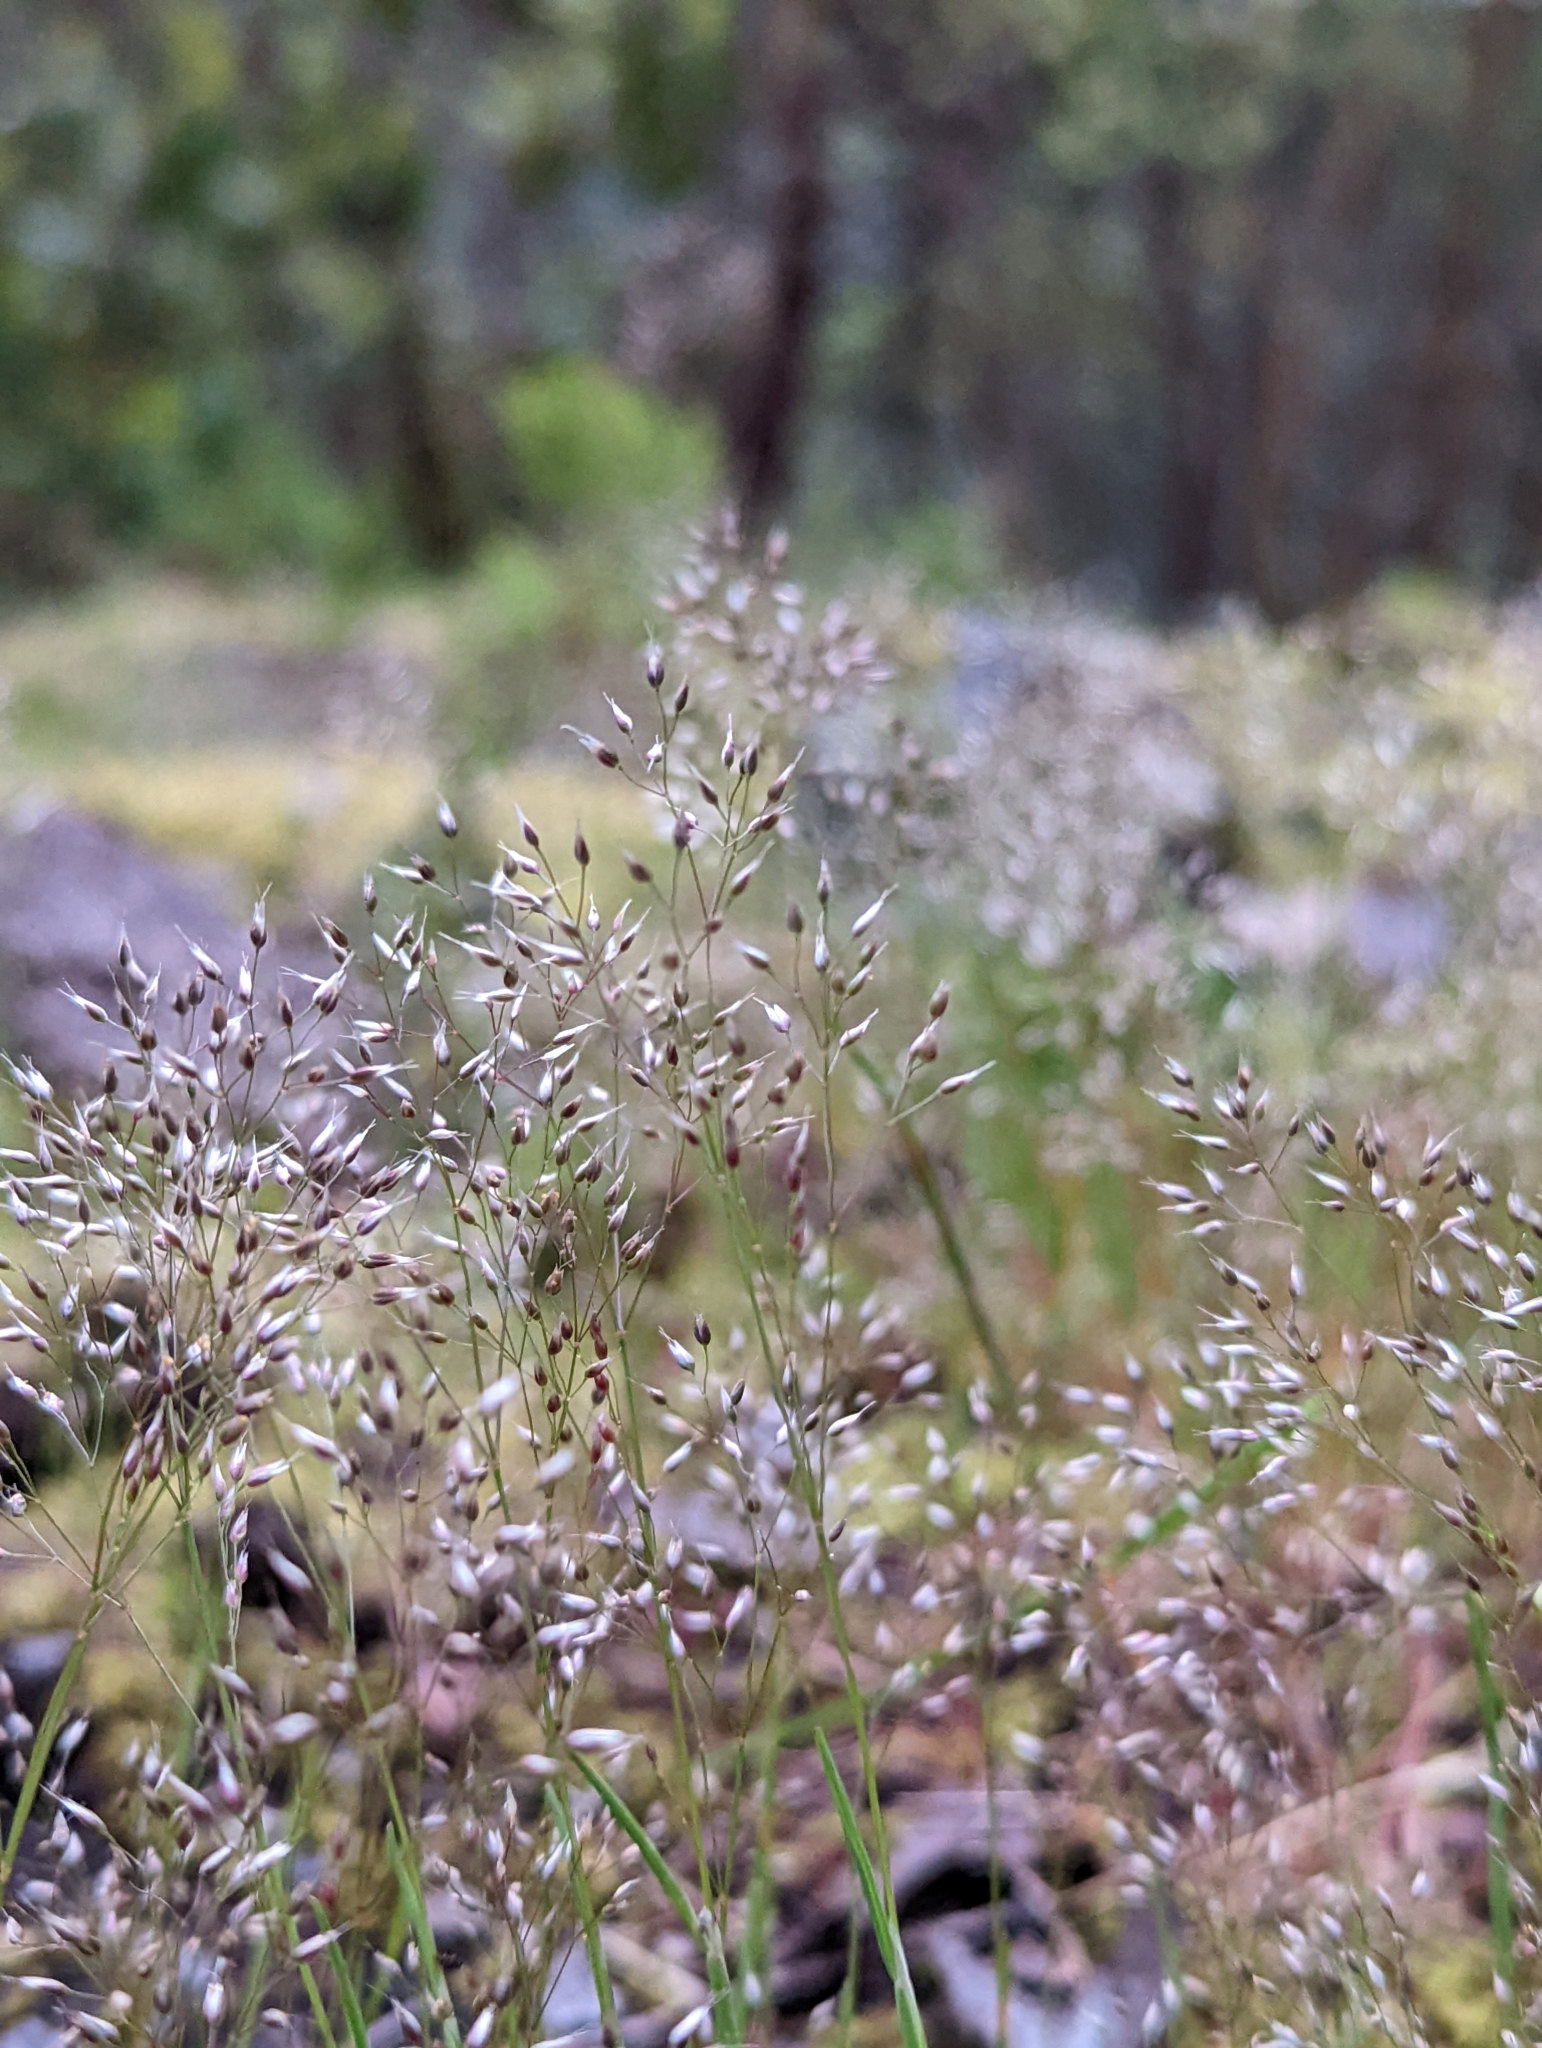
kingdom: Plantae
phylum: Tracheophyta
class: Liliopsida
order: Poales
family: Poaceae
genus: Aira
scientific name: Aira caryophyllea
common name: Silver hairgrass
